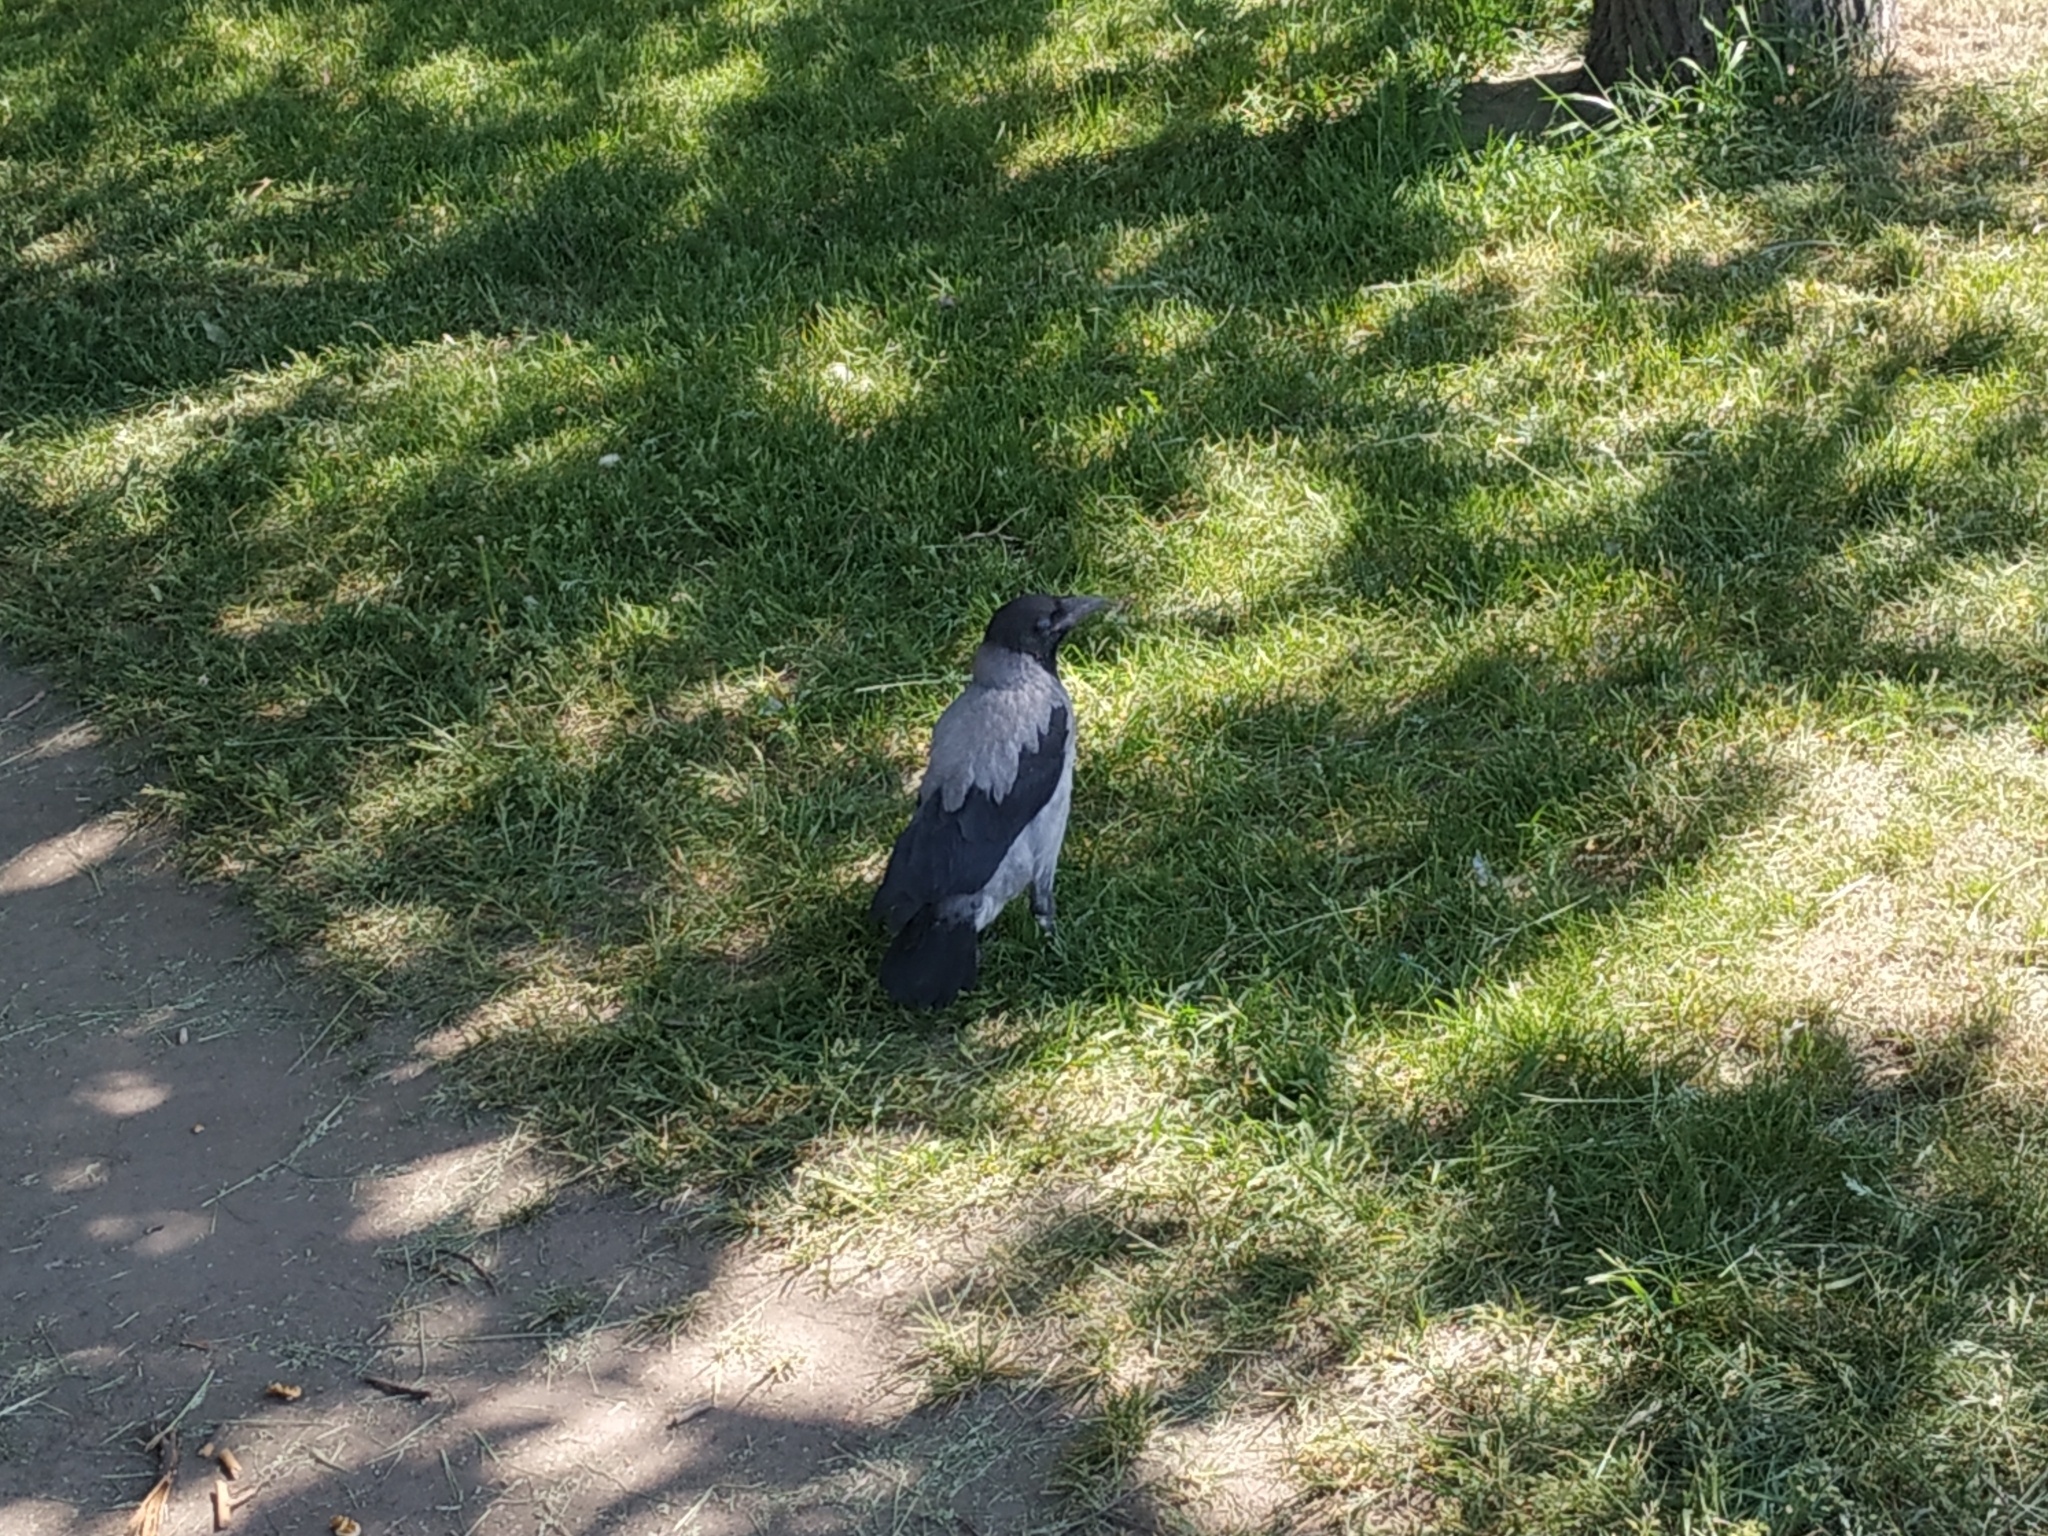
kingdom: Animalia
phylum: Chordata
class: Aves
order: Passeriformes
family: Corvidae
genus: Corvus
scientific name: Corvus cornix
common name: Hooded crow
